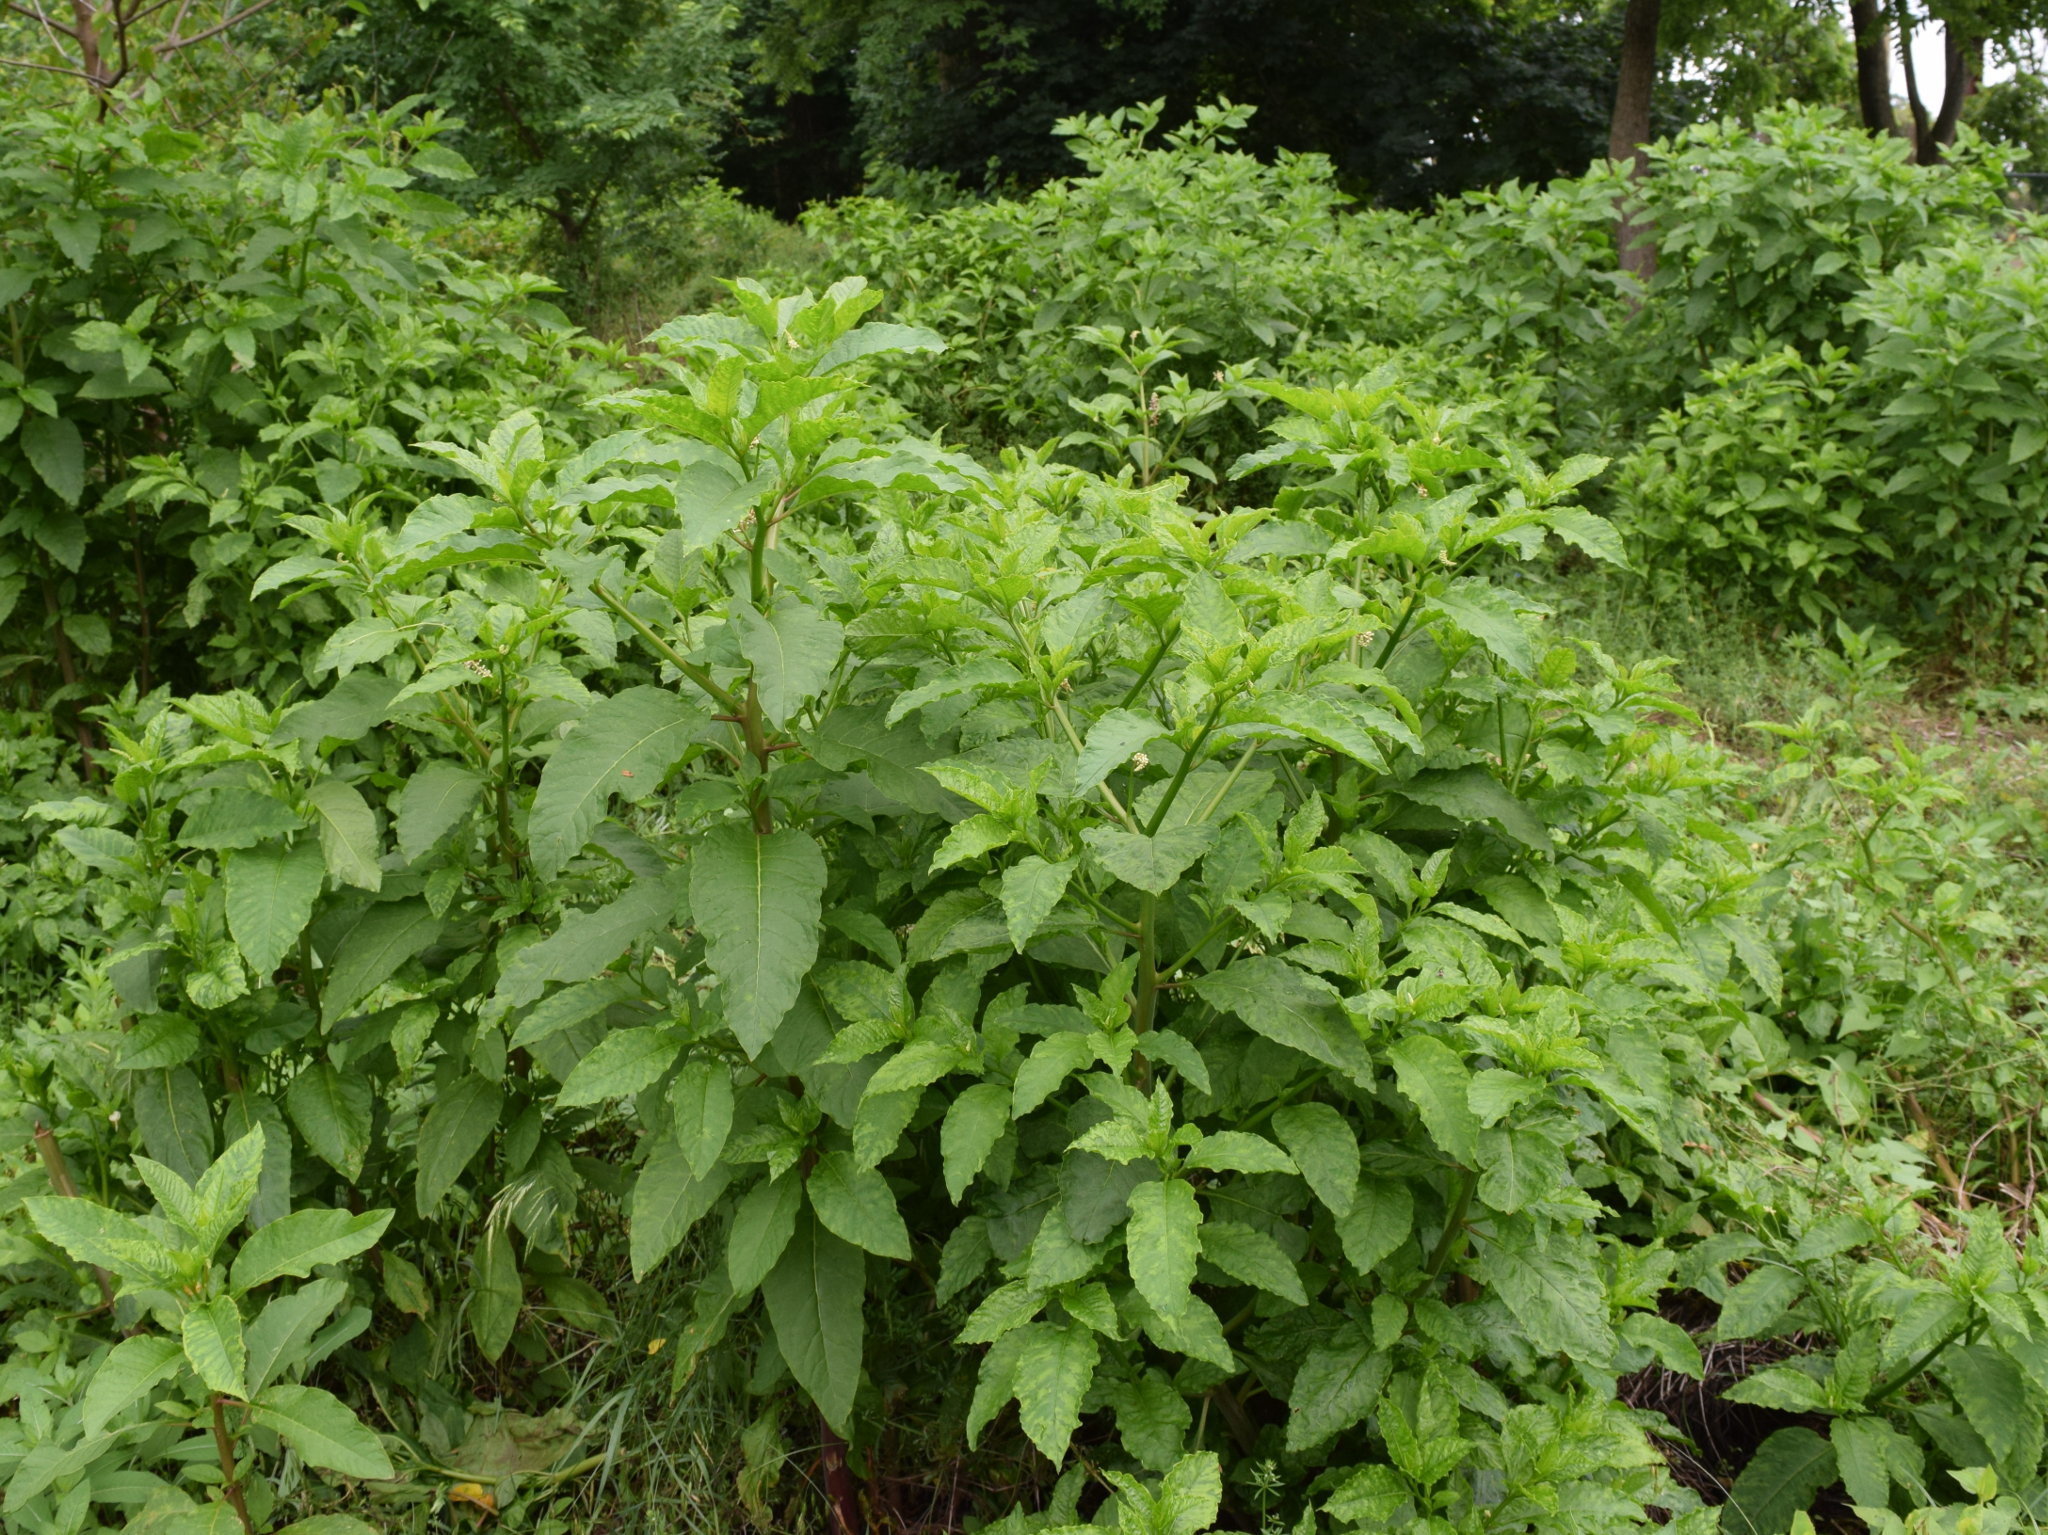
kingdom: Plantae
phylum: Tracheophyta
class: Magnoliopsida
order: Caryophyllales
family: Phytolaccaceae
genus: Phytolacca
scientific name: Phytolacca americana
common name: American pokeweed
